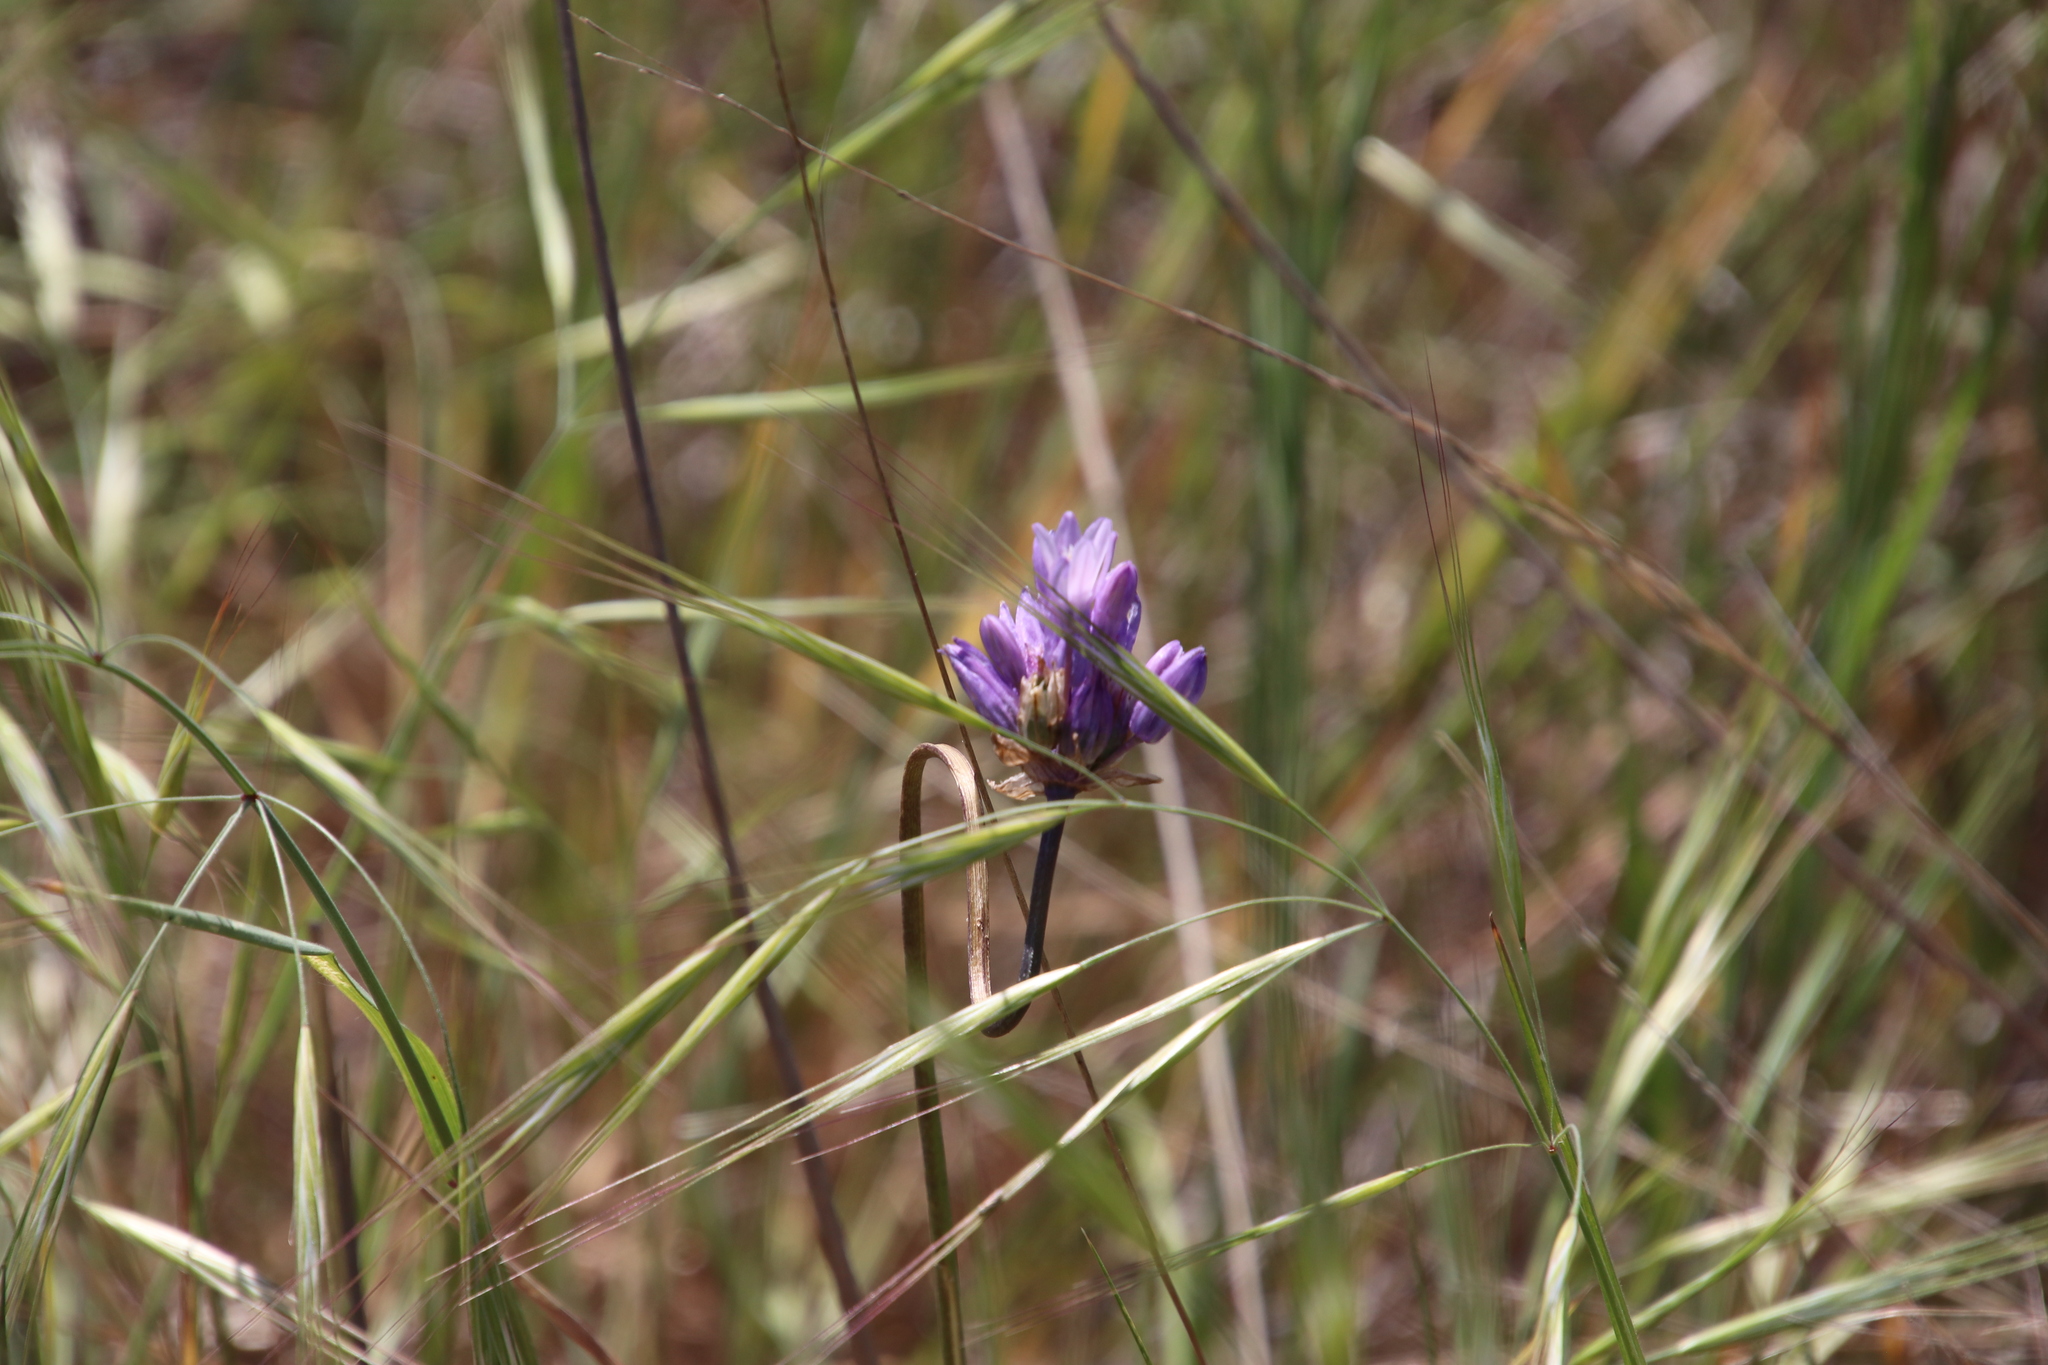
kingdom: Plantae
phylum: Tracheophyta
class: Liliopsida
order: Asparagales
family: Asparagaceae
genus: Dipterostemon
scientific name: Dipterostemon capitatus
